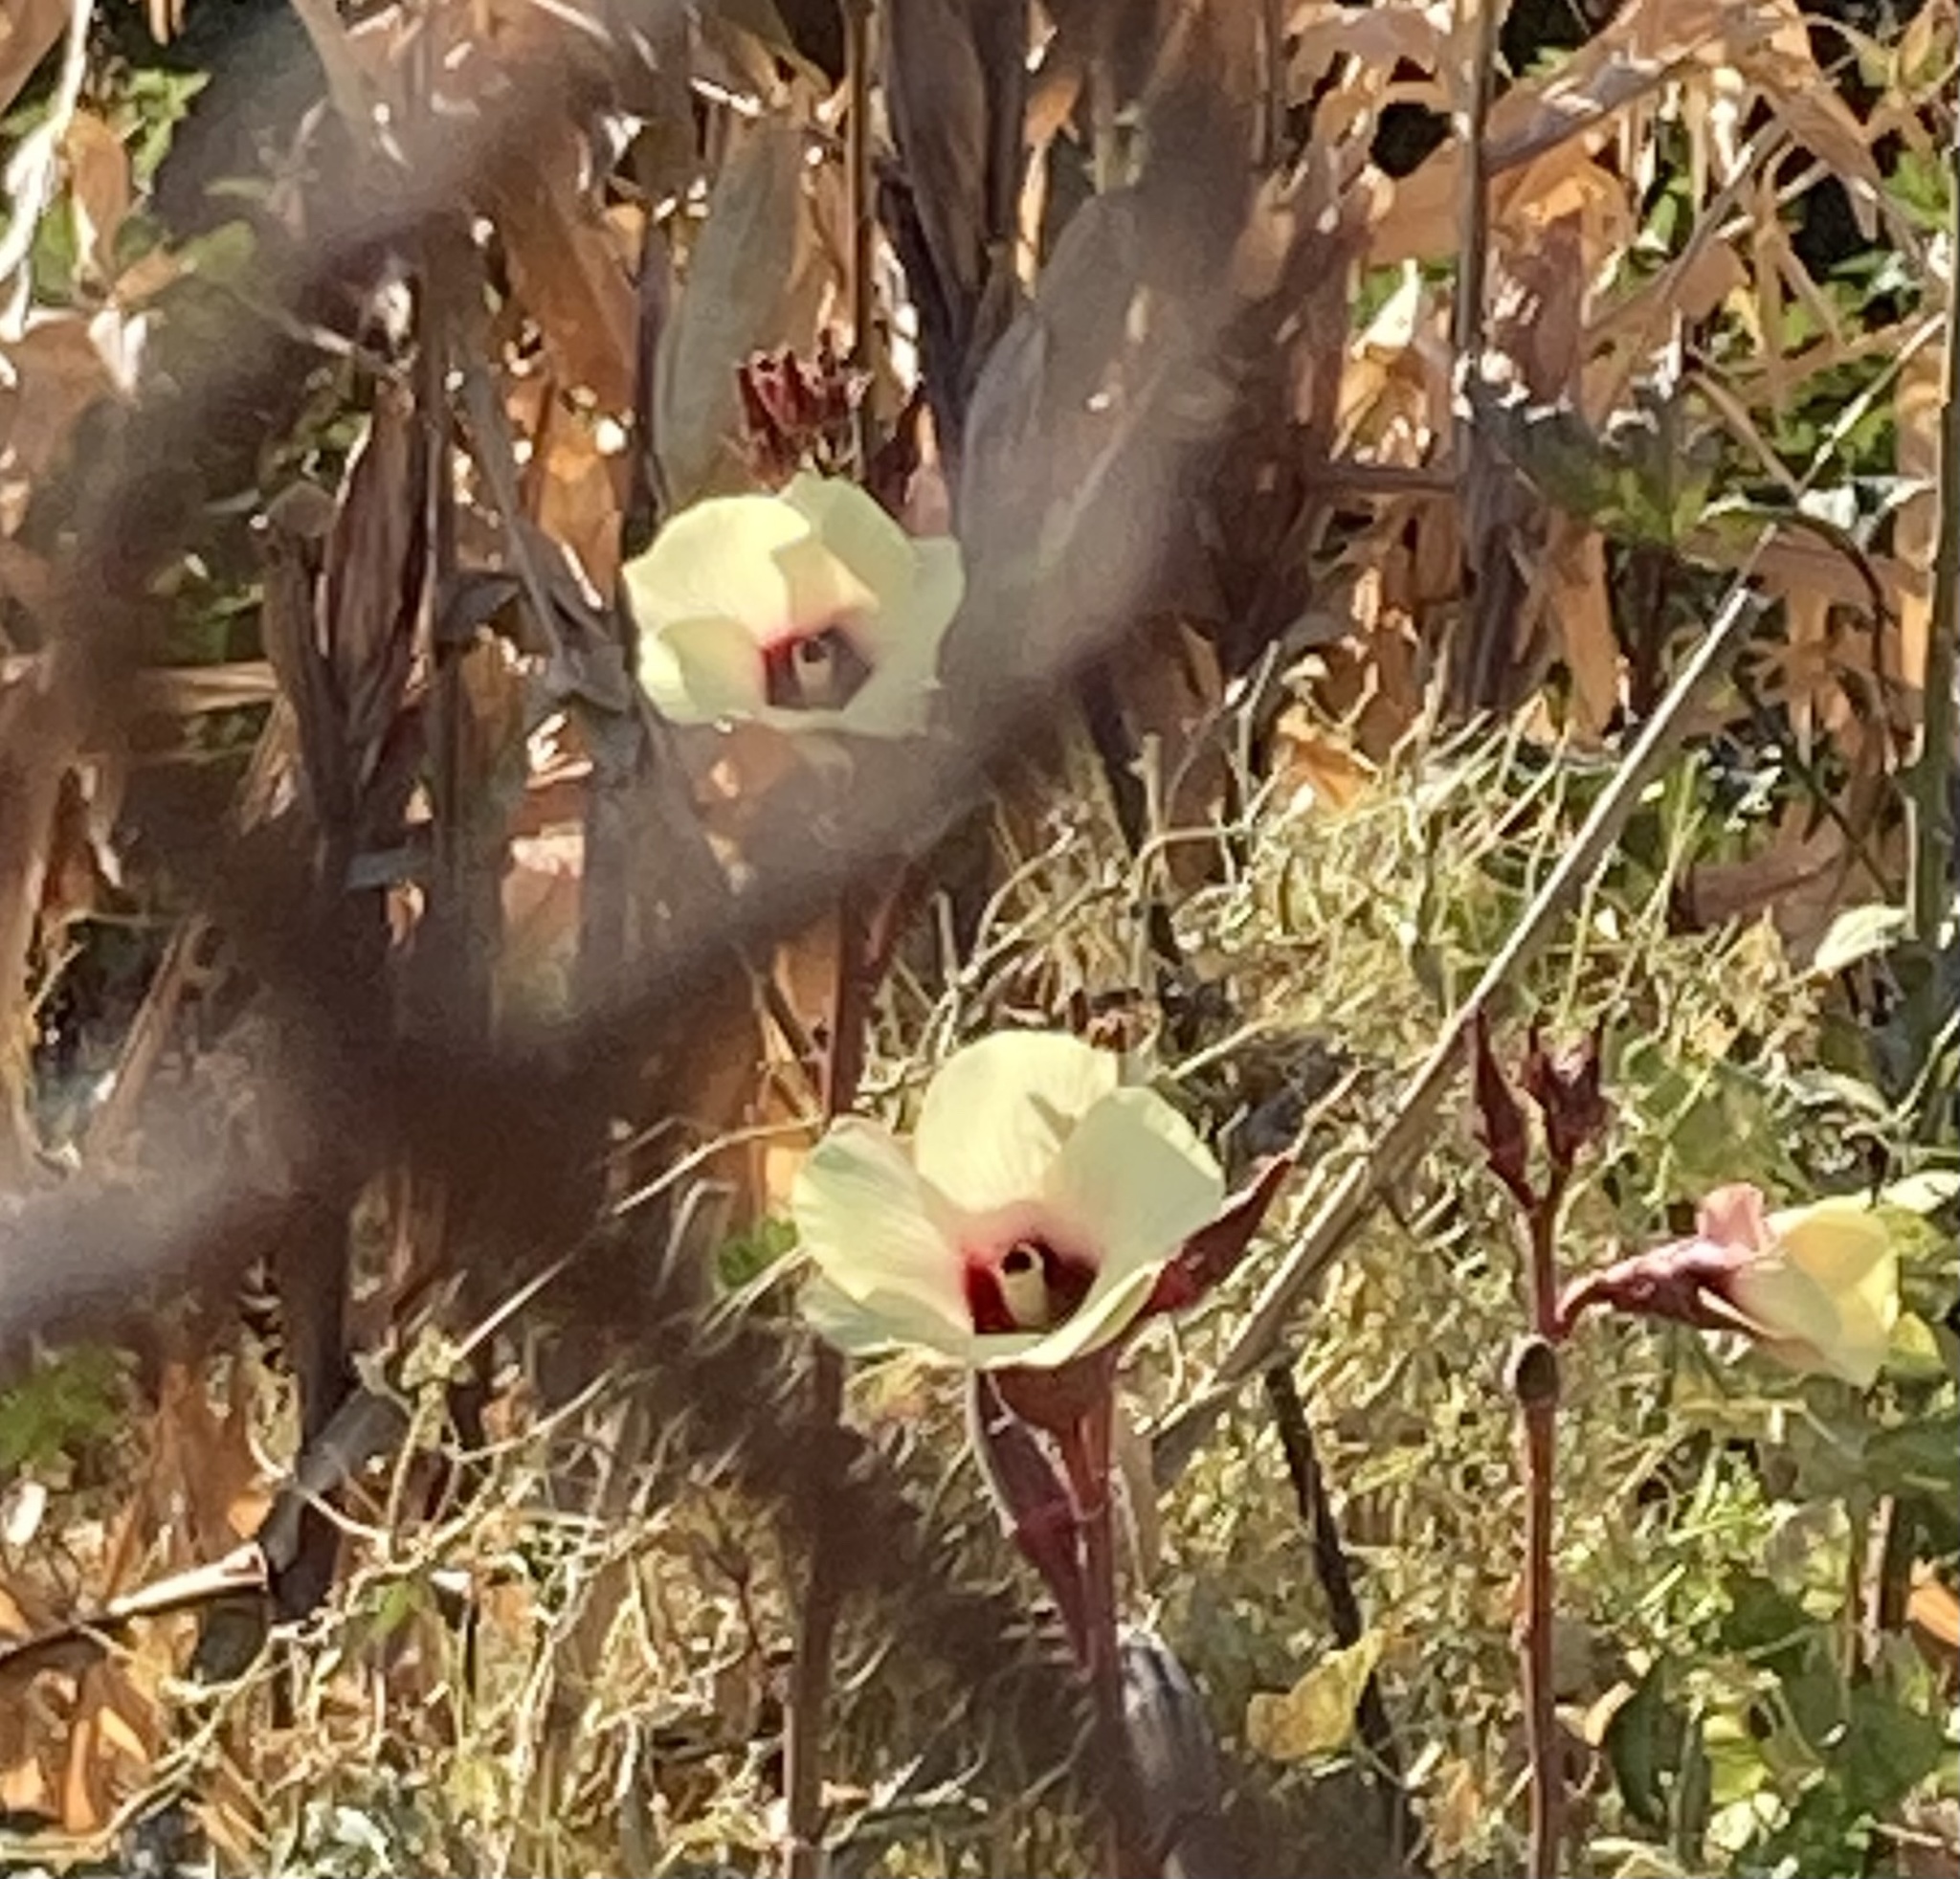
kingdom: Plantae
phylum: Tracheophyta
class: Magnoliopsida
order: Malvales
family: Malvaceae
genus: Abelmoschus
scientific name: Abelmoschus esculentus
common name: Okra
